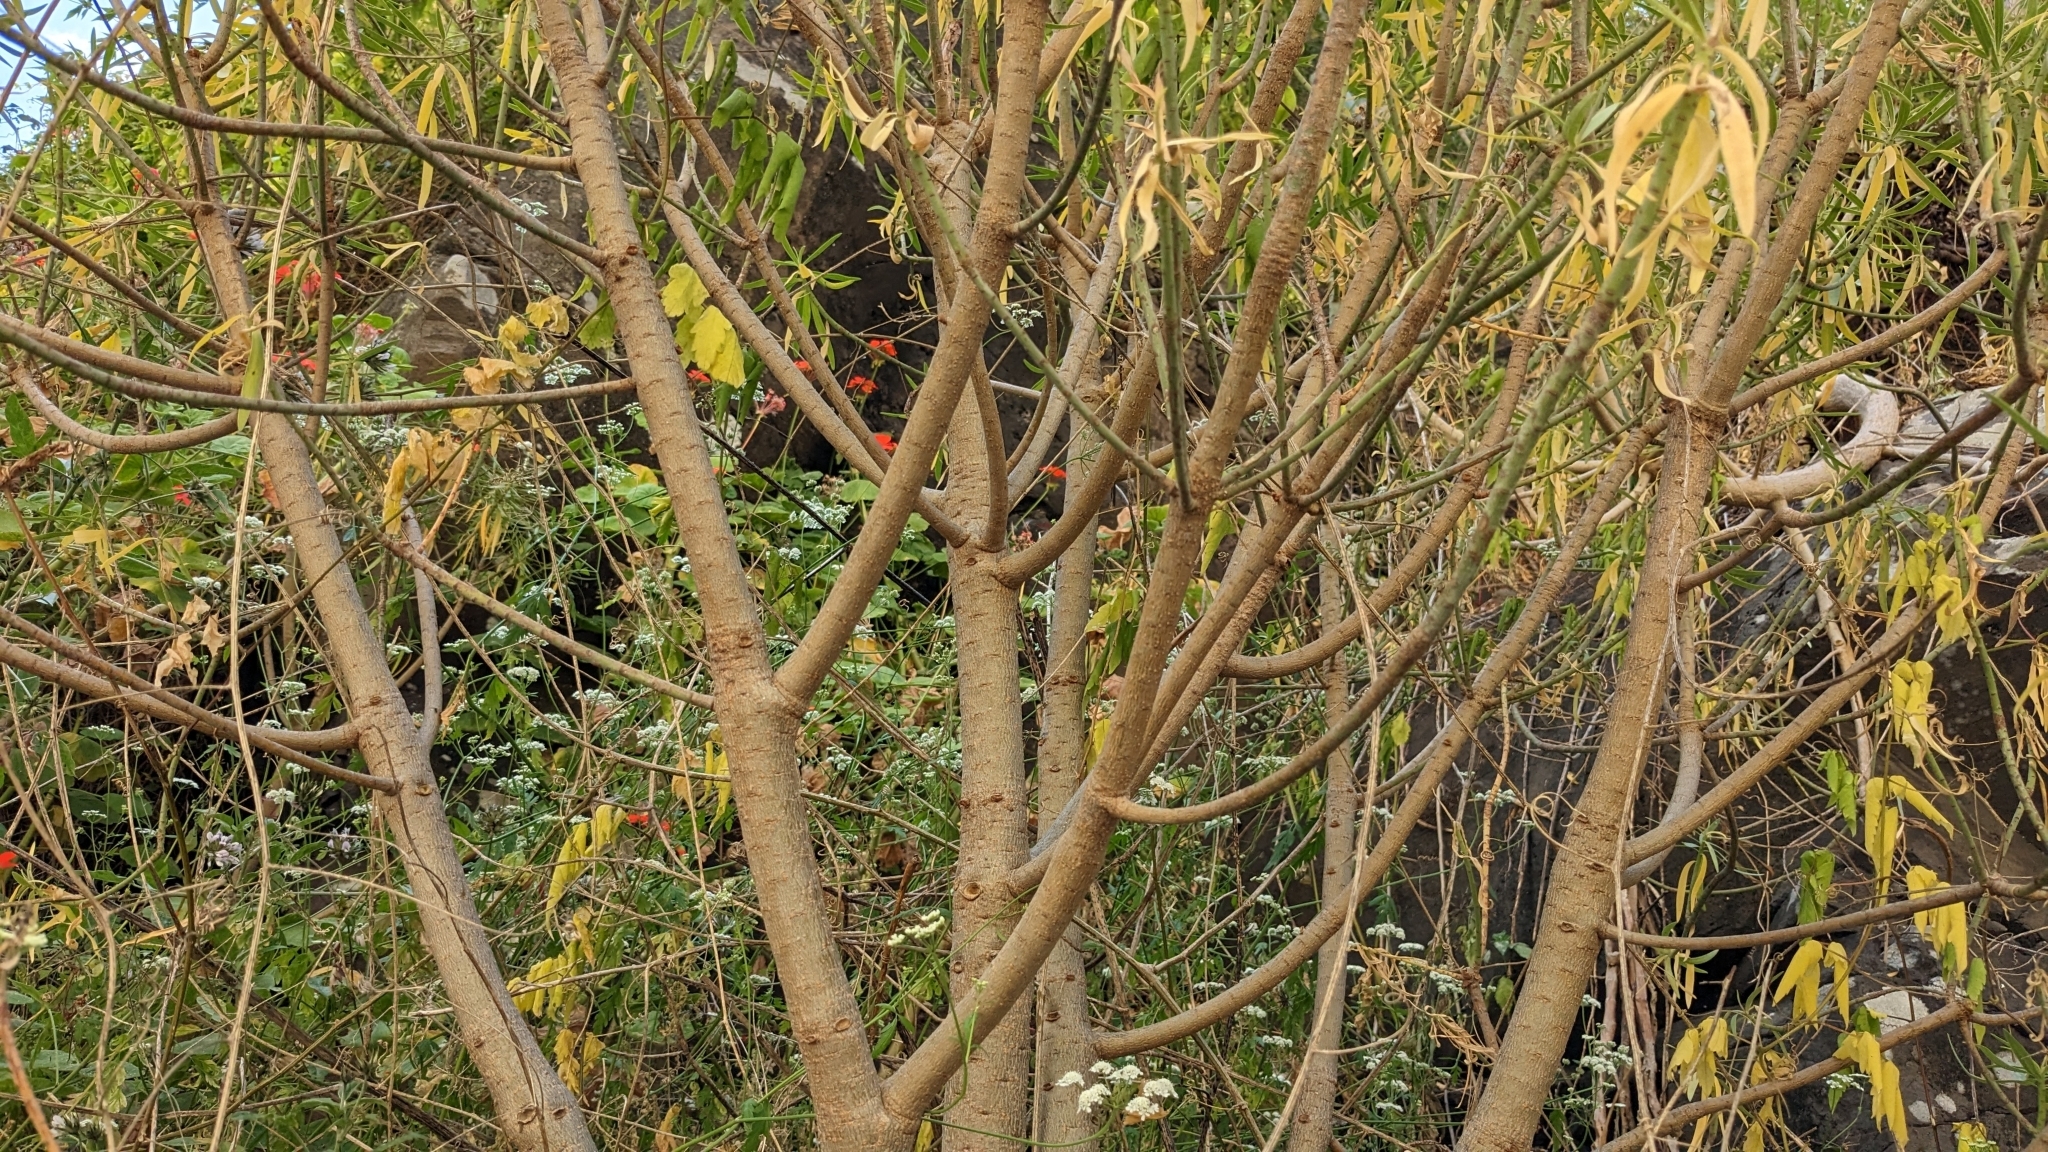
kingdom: Plantae
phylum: Tracheophyta
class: Magnoliopsida
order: Malpighiales
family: Euphorbiaceae
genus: Euphorbia
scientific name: Euphorbia piscatoria
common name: Fish-stunning spurge
